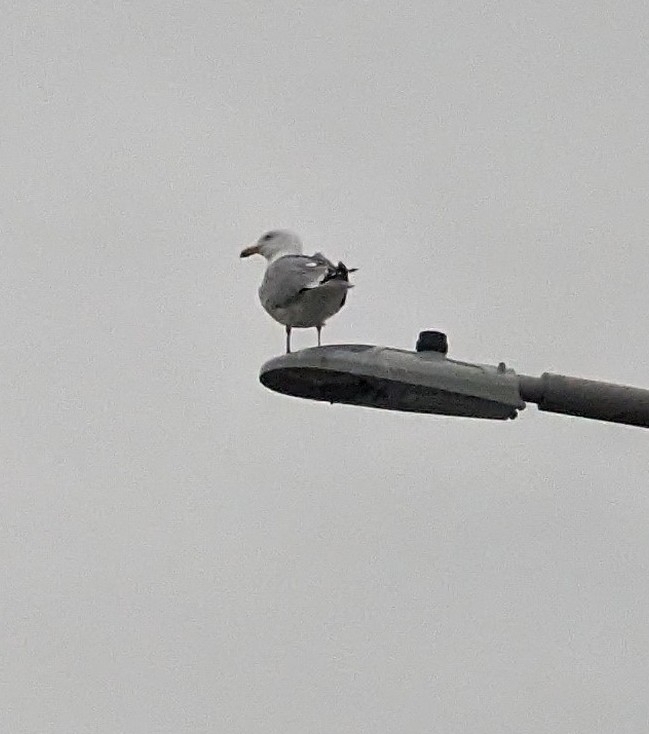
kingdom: Animalia
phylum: Chordata
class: Aves
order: Charadriiformes
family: Laridae
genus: Larus
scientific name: Larus delawarensis
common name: Ring-billed gull
